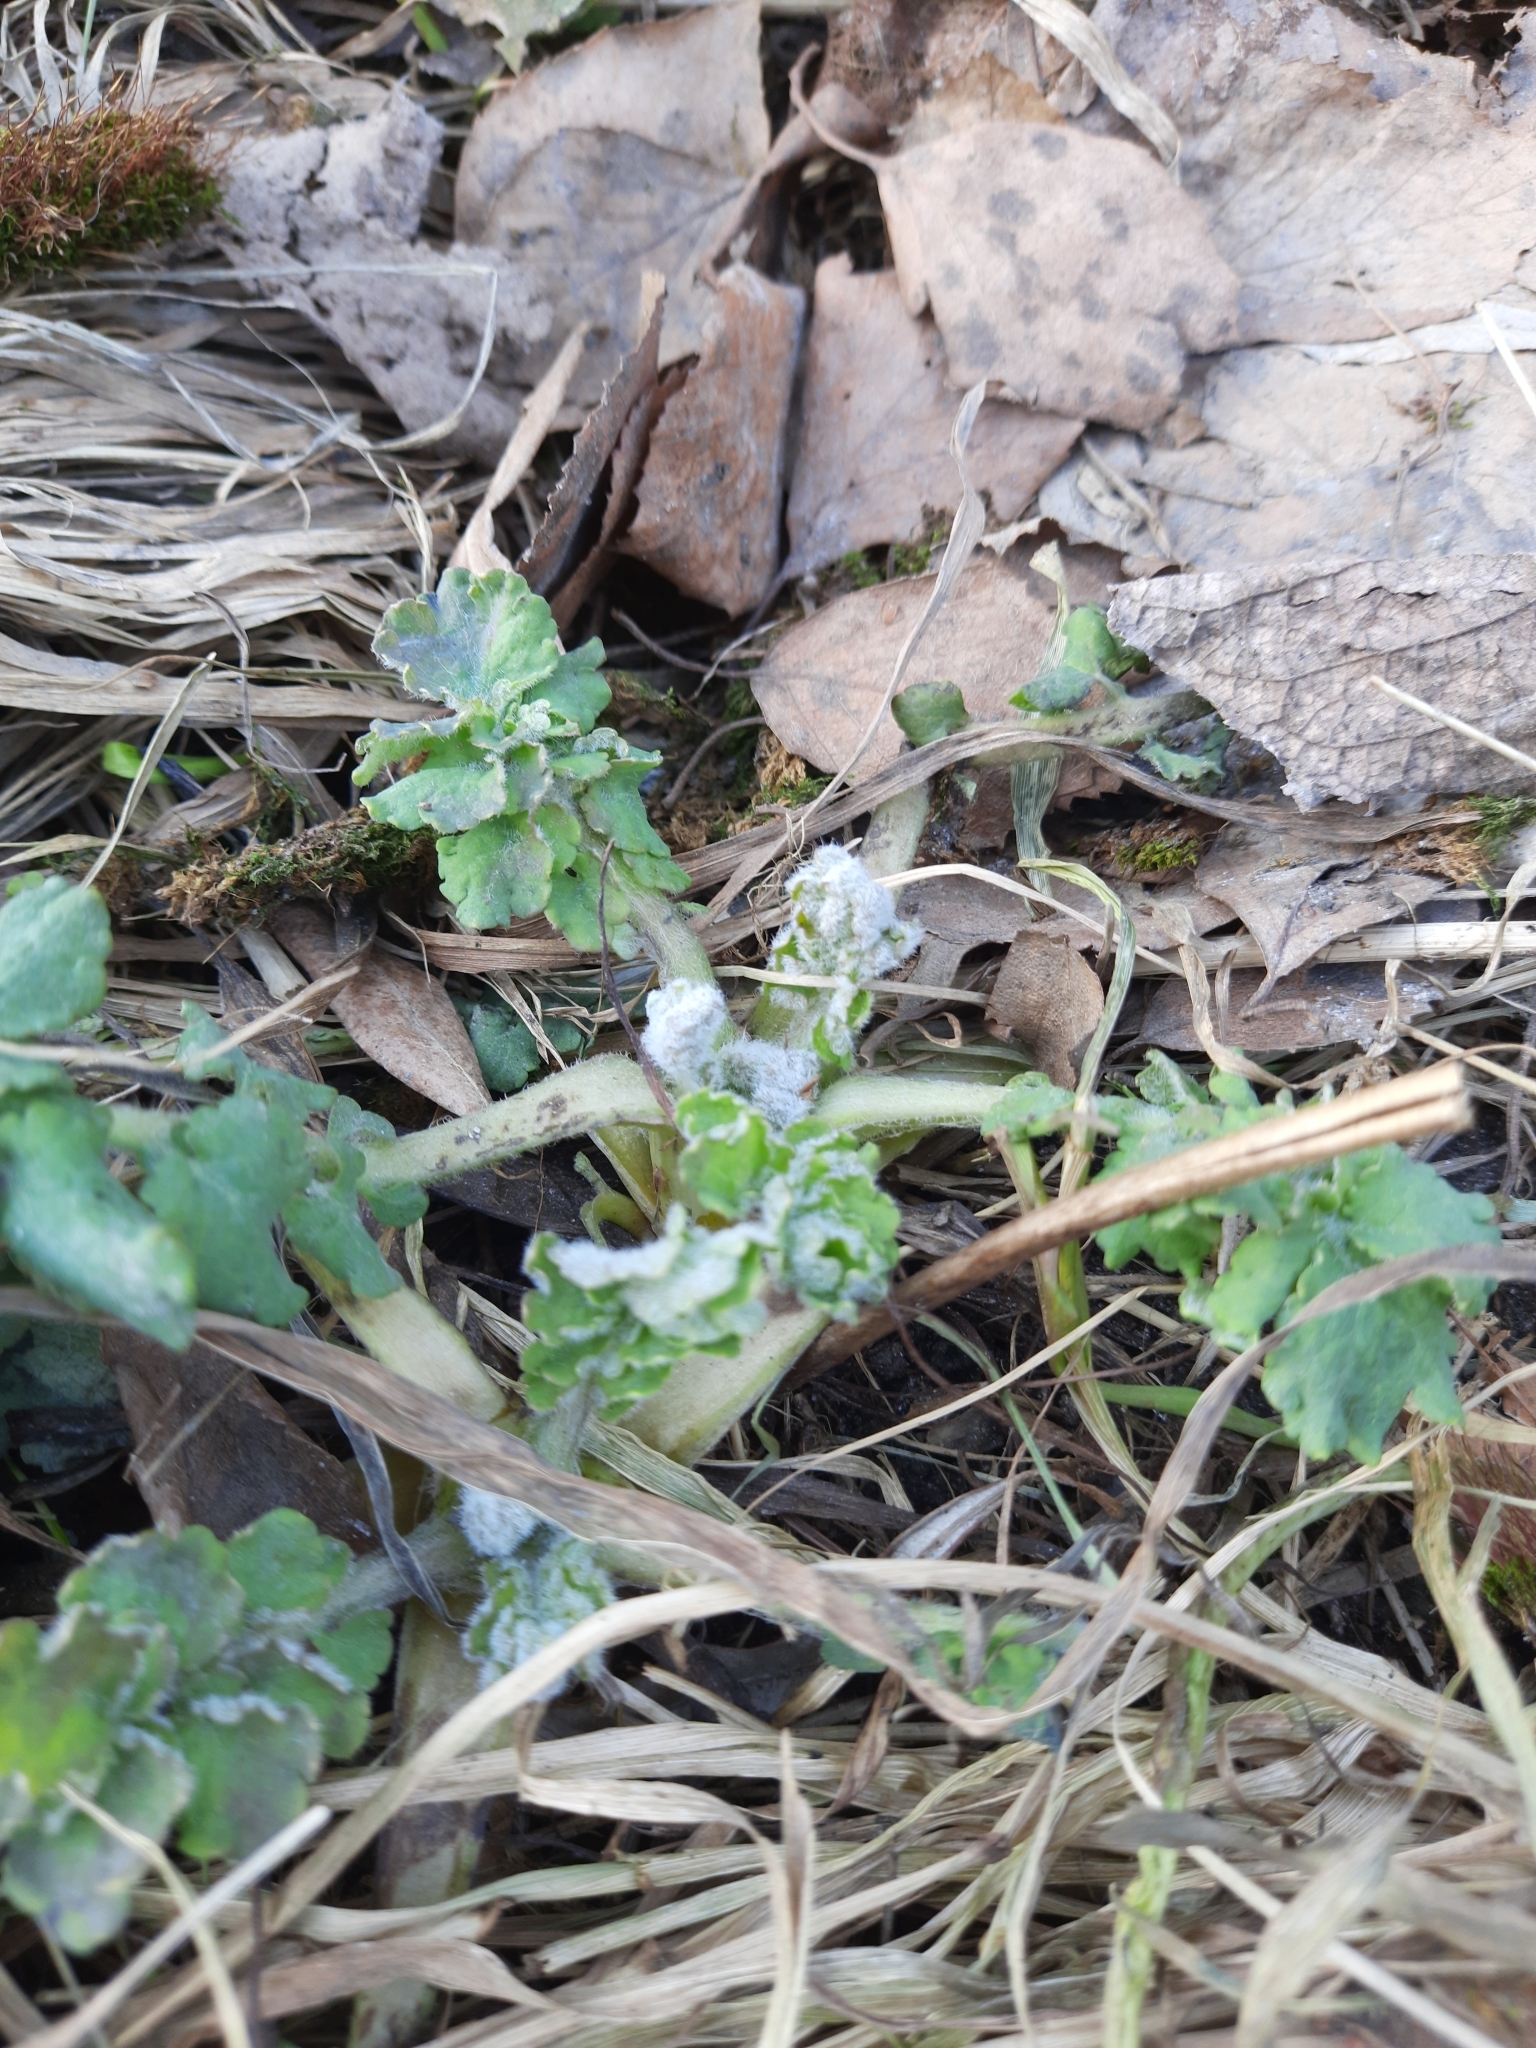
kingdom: Plantae
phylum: Tracheophyta
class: Magnoliopsida
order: Ranunculales
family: Papaveraceae
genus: Chelidonium
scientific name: Chelidonium majus
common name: Greater celandine
